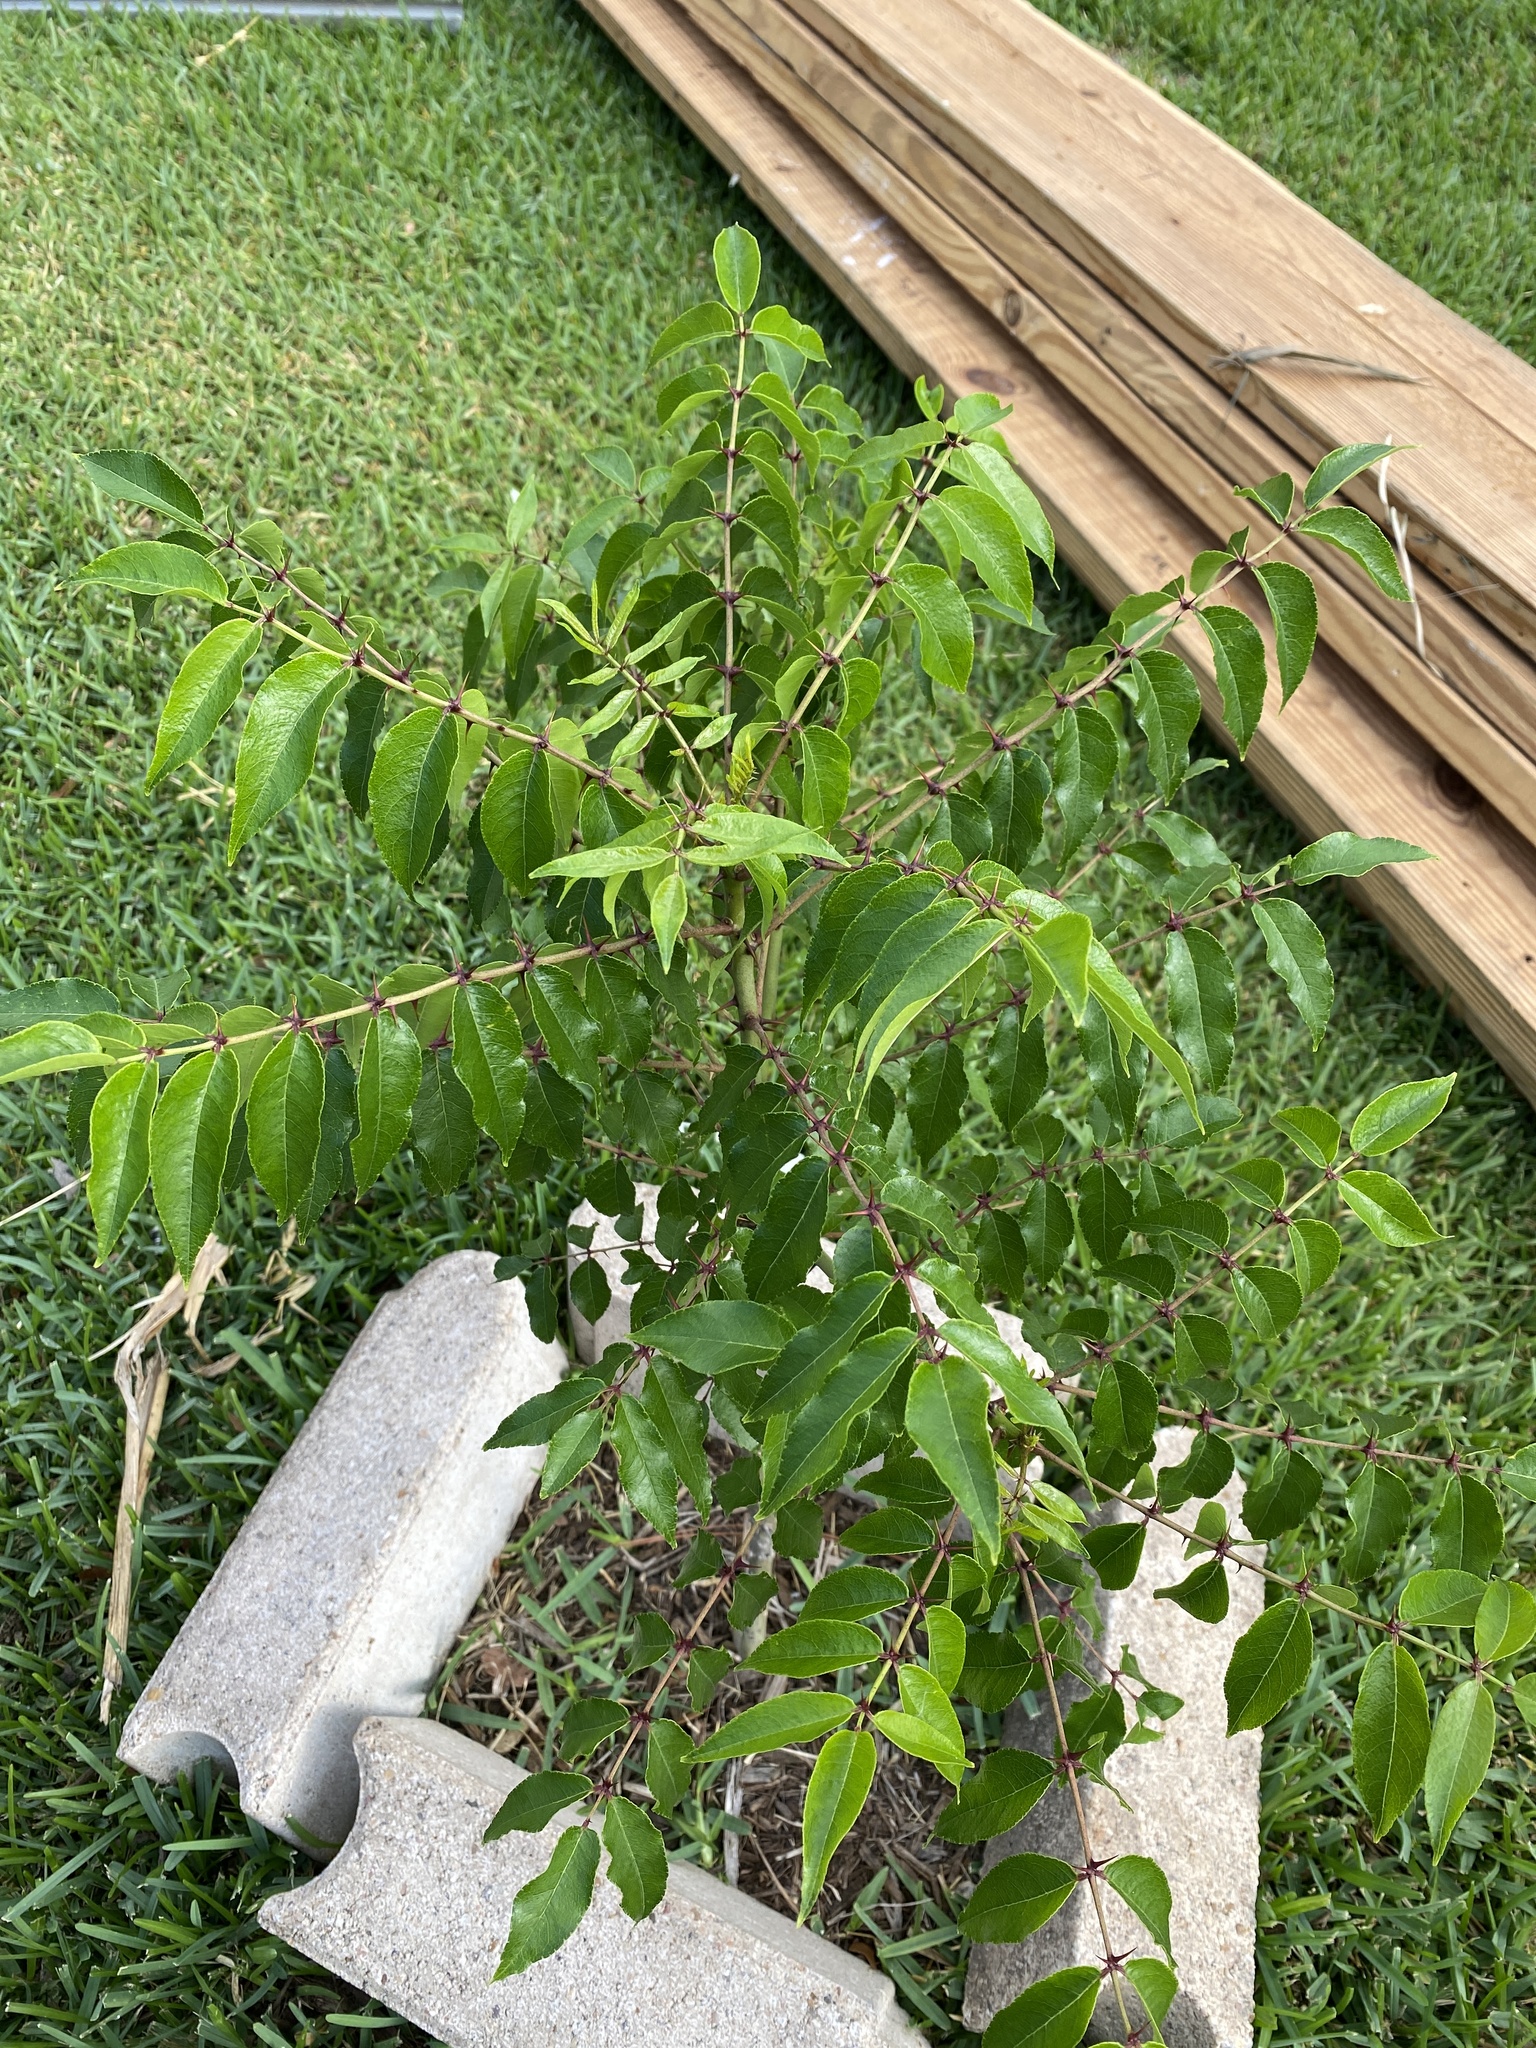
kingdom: Plantae
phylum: Tracheophyta
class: Magnoliopsida
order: Sapindales
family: Rutaceae
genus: Zanthoxylum
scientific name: Zanthoxylum clava-herculis
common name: Hercules'-club
